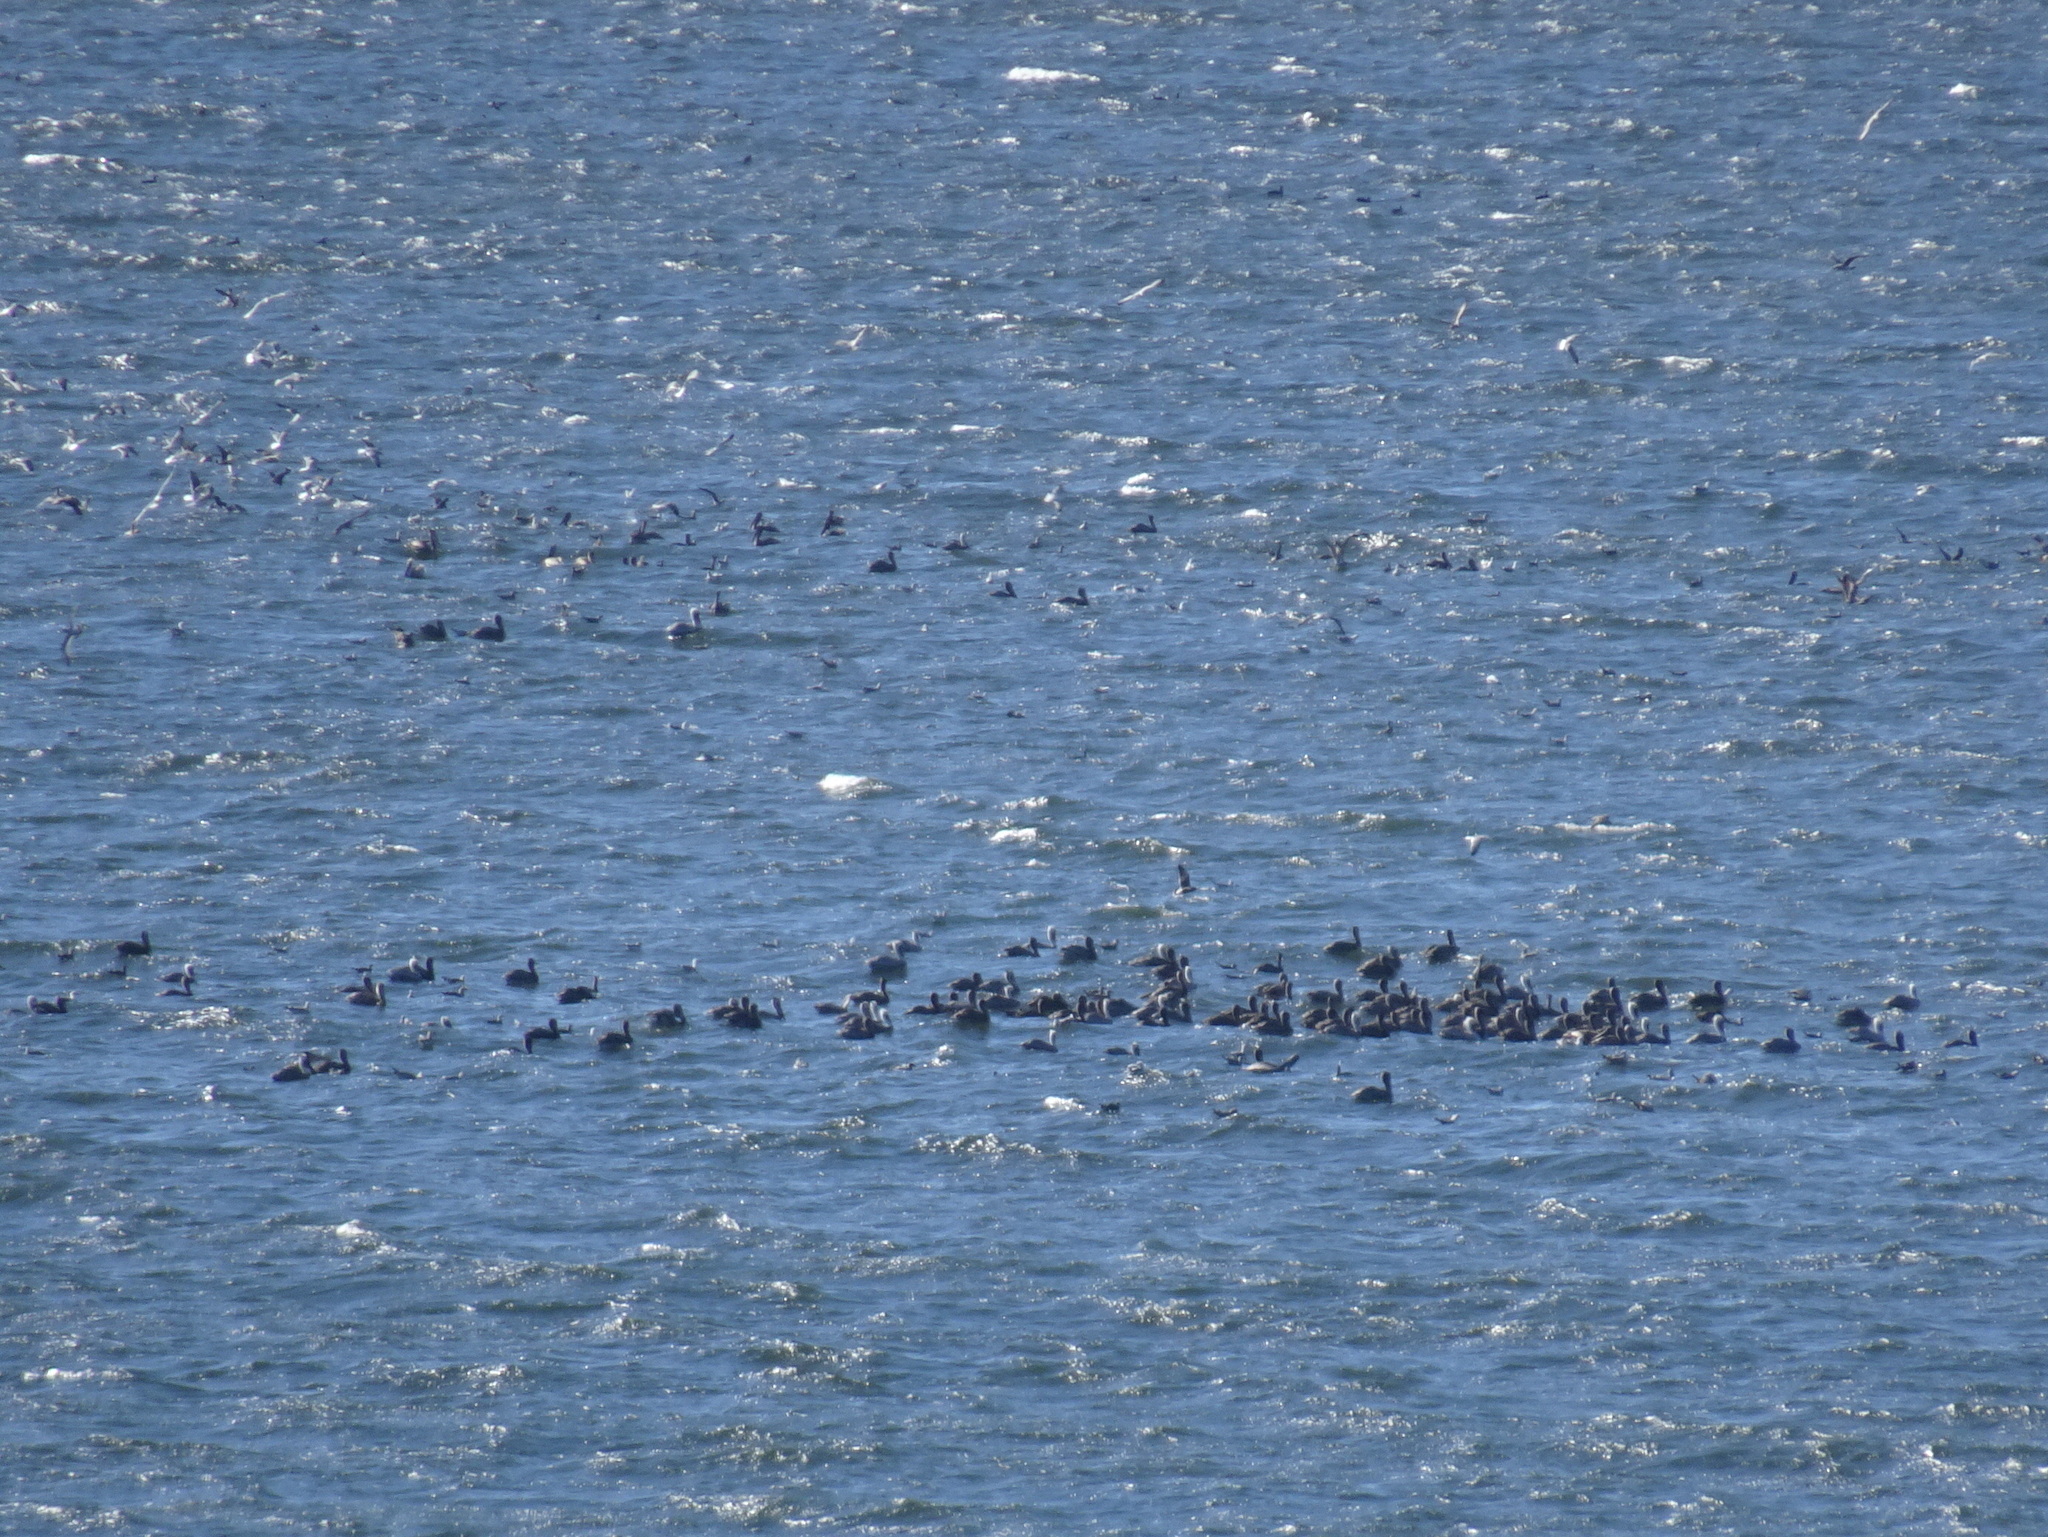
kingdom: Animalia
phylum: Chordata
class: Aves
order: Pelecaniformes
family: Pelecanidae
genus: Pelecanus
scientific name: Pelecanus occidentalis
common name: Brown pelican
